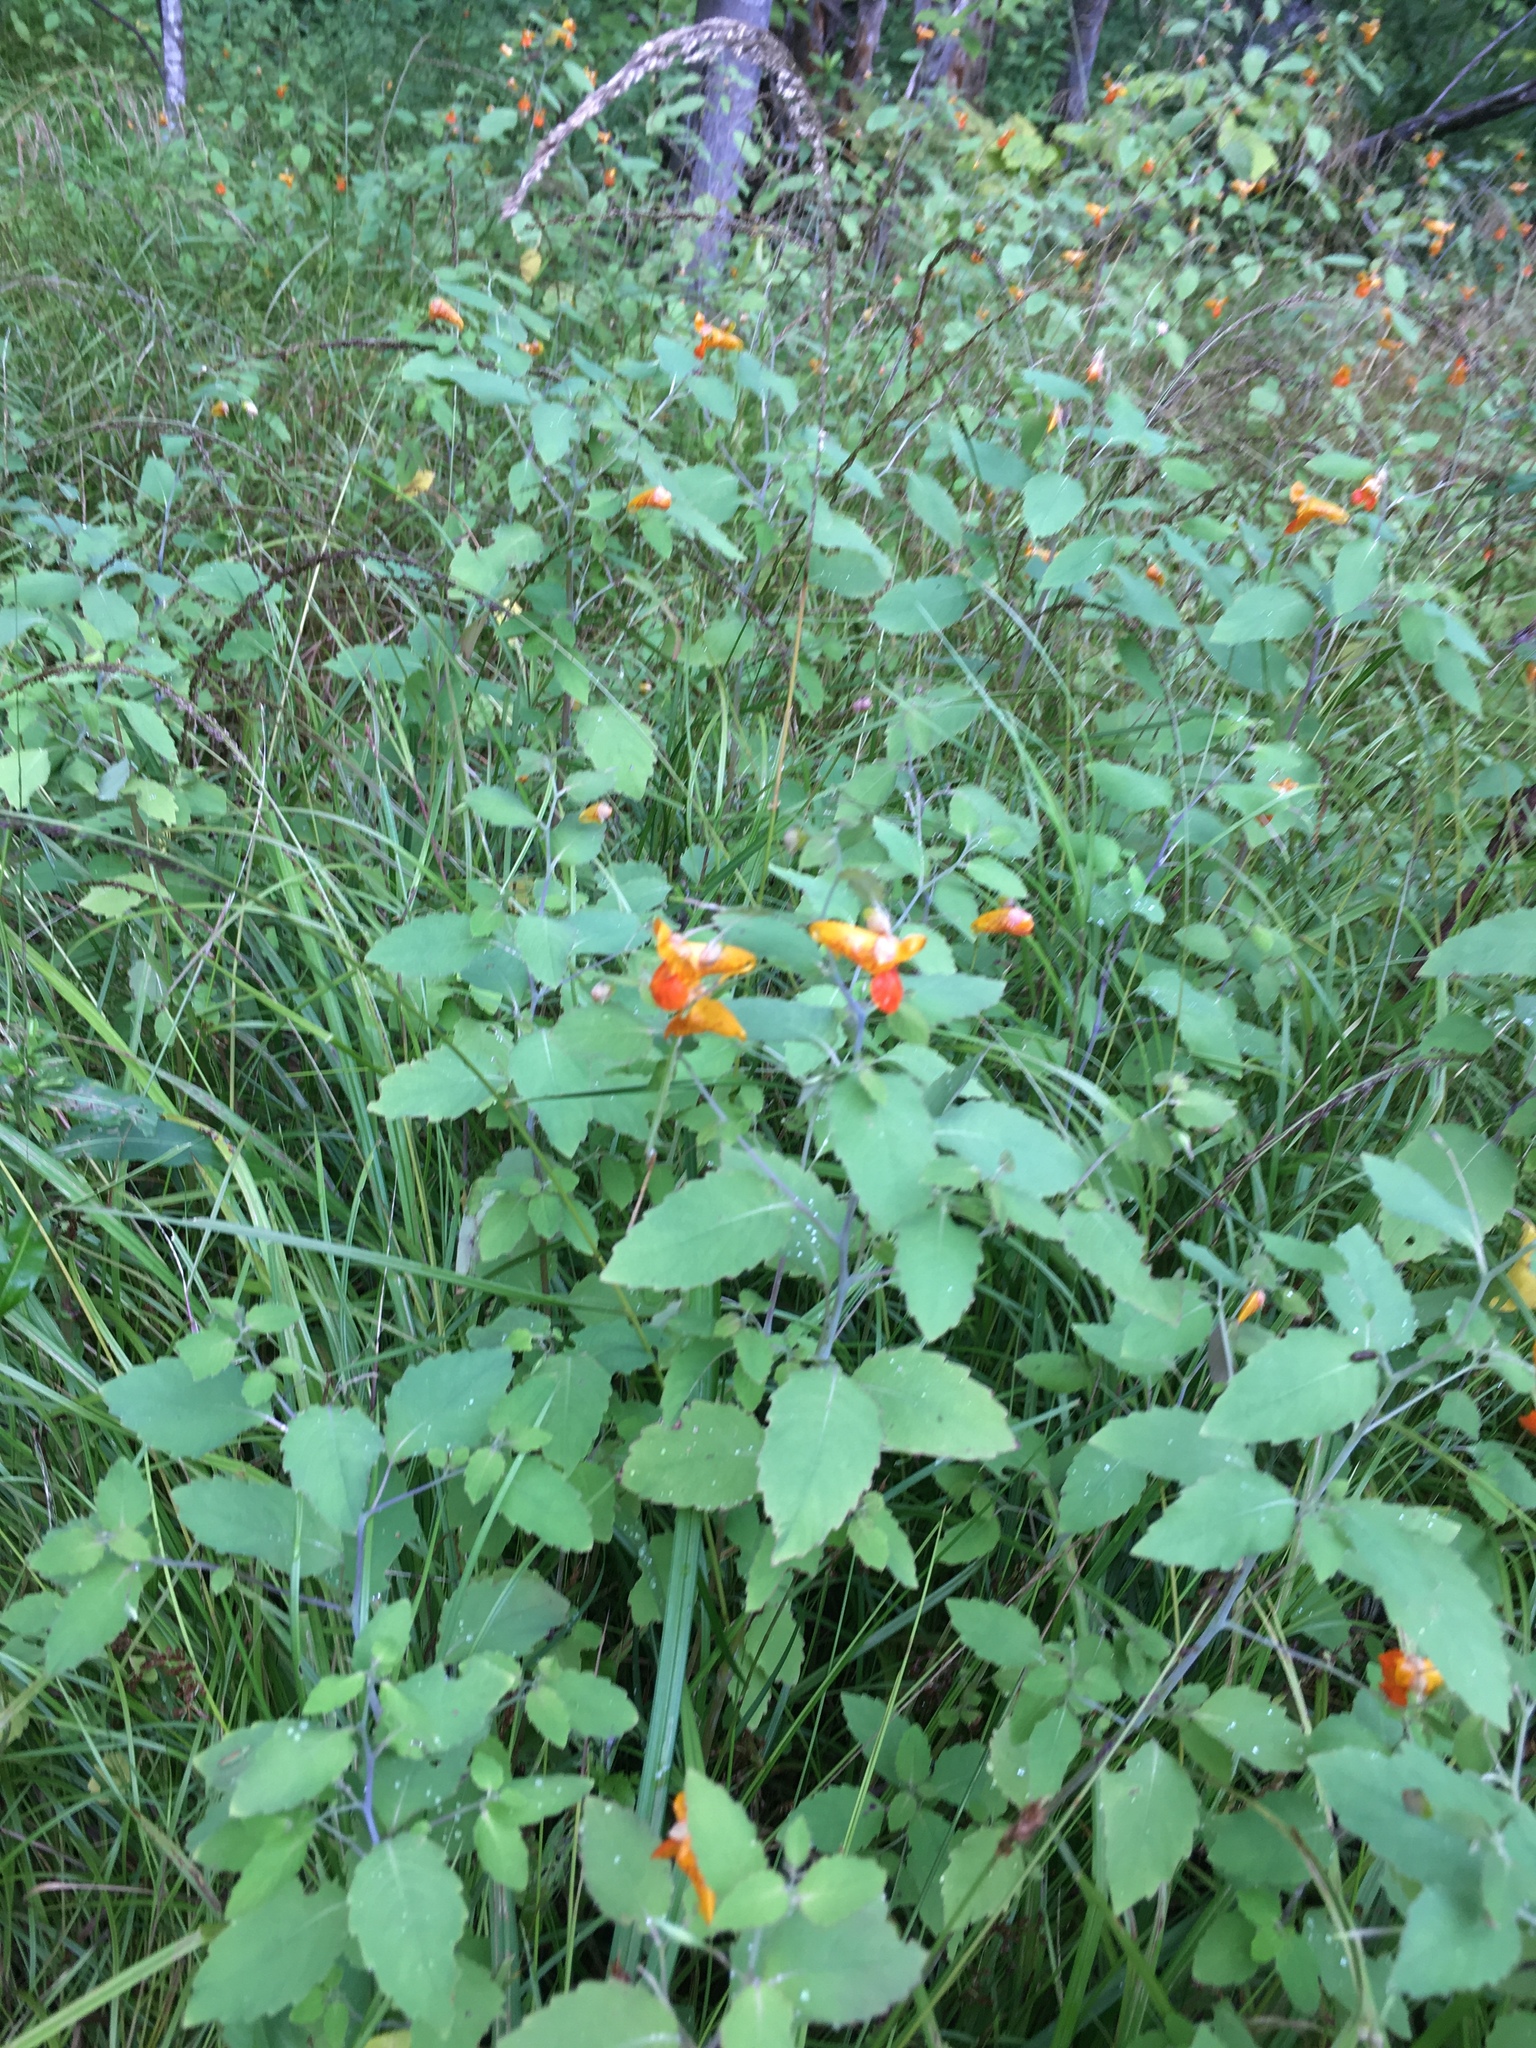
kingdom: Plantae
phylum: Tracheophyta
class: Magnoliopsida
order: Ericales
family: Balsaminaceae
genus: Impatiens
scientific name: Impatiens capensis
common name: Orange balsam
